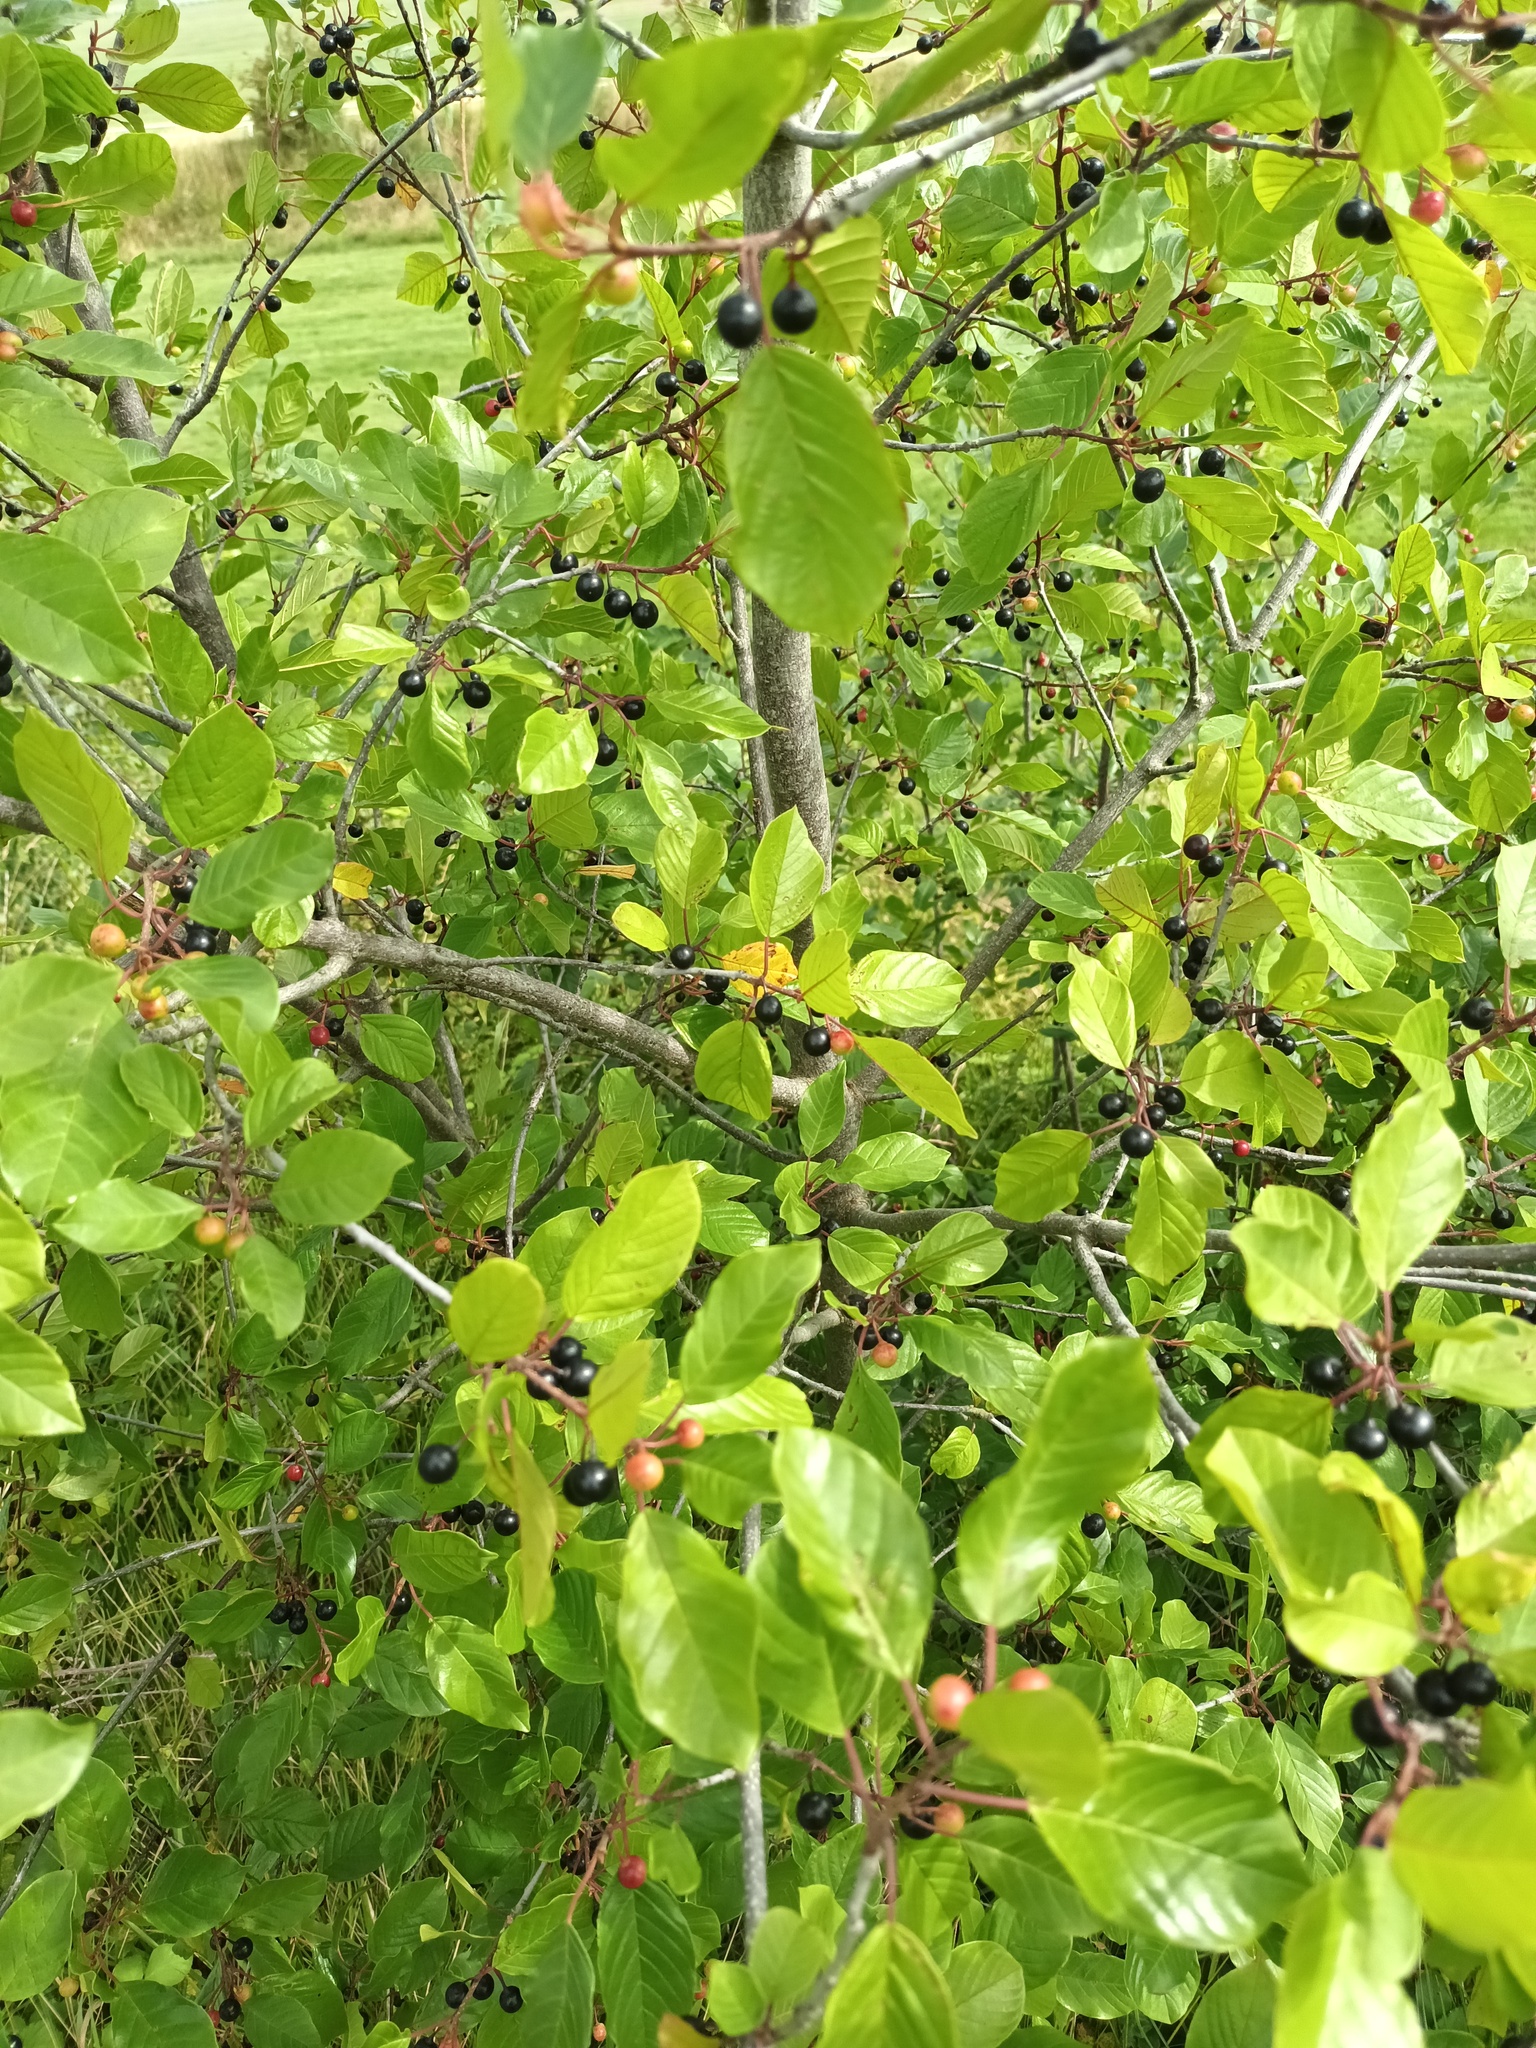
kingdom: Plantae
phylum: Tracheophyta
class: Magnoliopsida
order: Rosales
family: Rhamnaceae
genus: Frangula
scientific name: Frangula alnus
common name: Alder buckthorn
